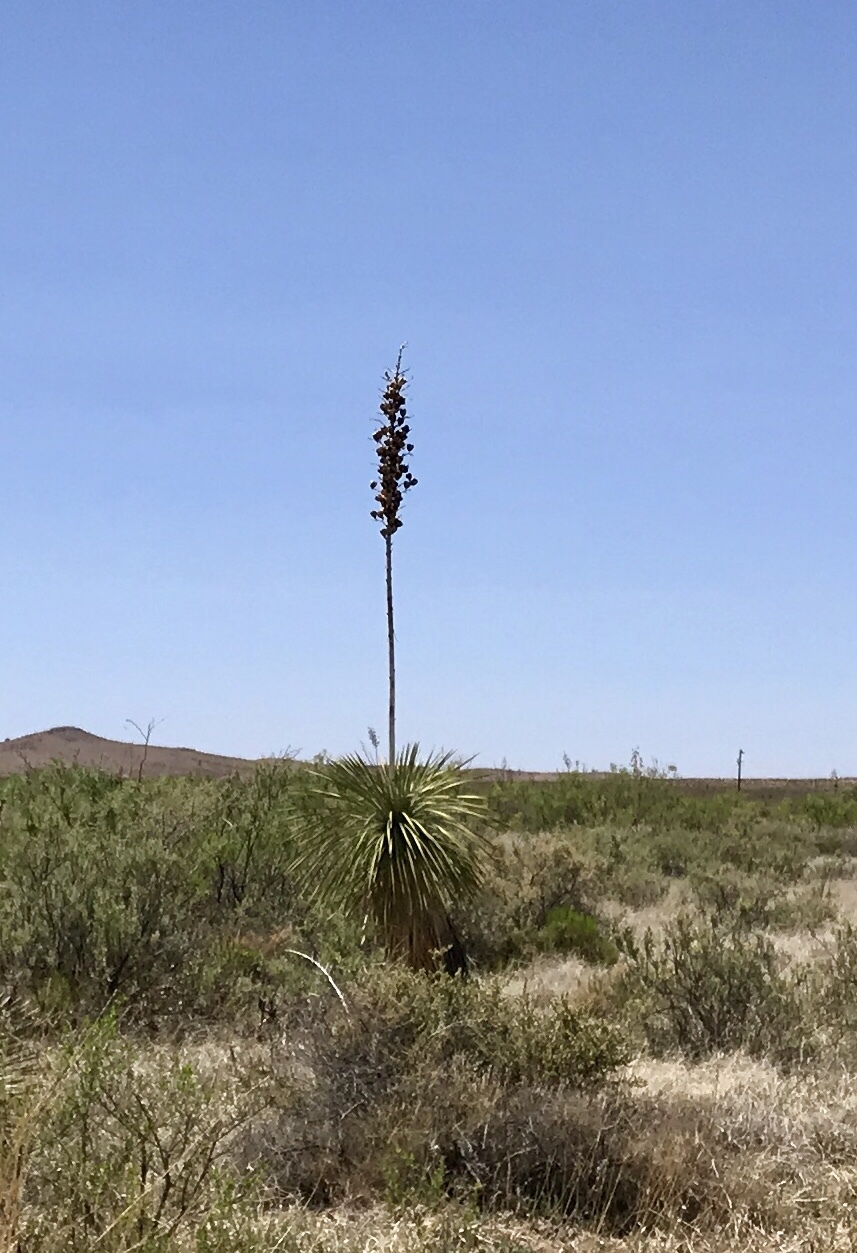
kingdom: Plantae
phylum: Tracheophyta
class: Liliopsida
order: Asparagales
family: Asparagaceae
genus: Yucca
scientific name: Yucca elata
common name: Palmella
